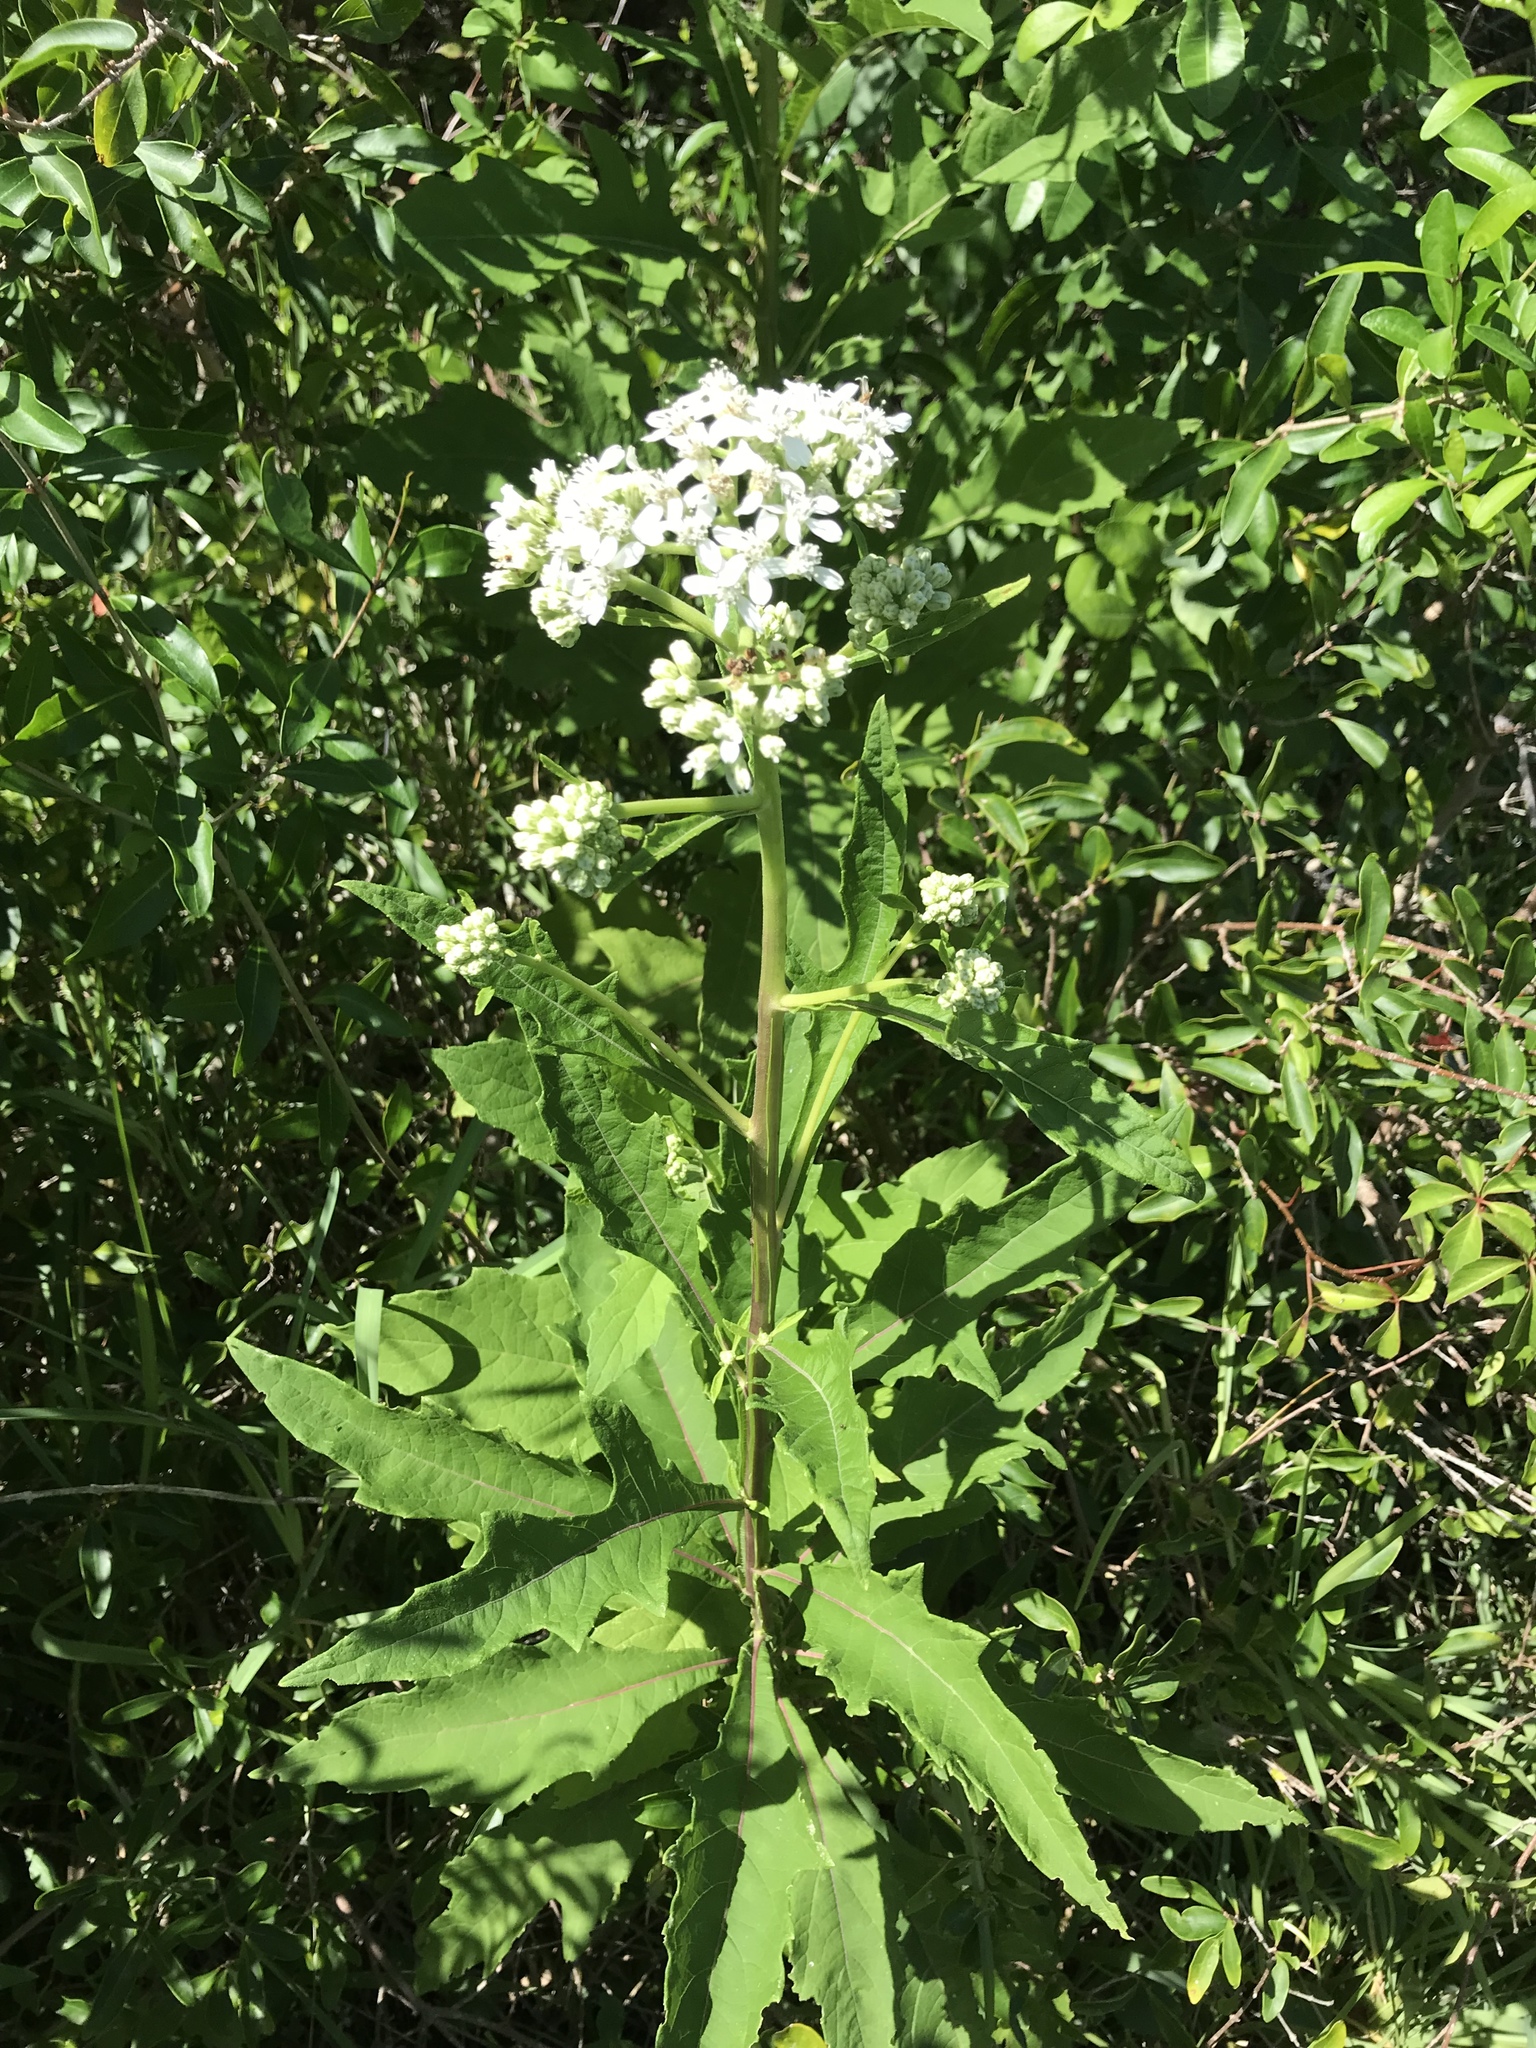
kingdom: Plantae
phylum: Tracheophyta
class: Magnoliopsida
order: Asterales
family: Asteraceae
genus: Verbesina
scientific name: Verbesina virginica
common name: Frostweed
